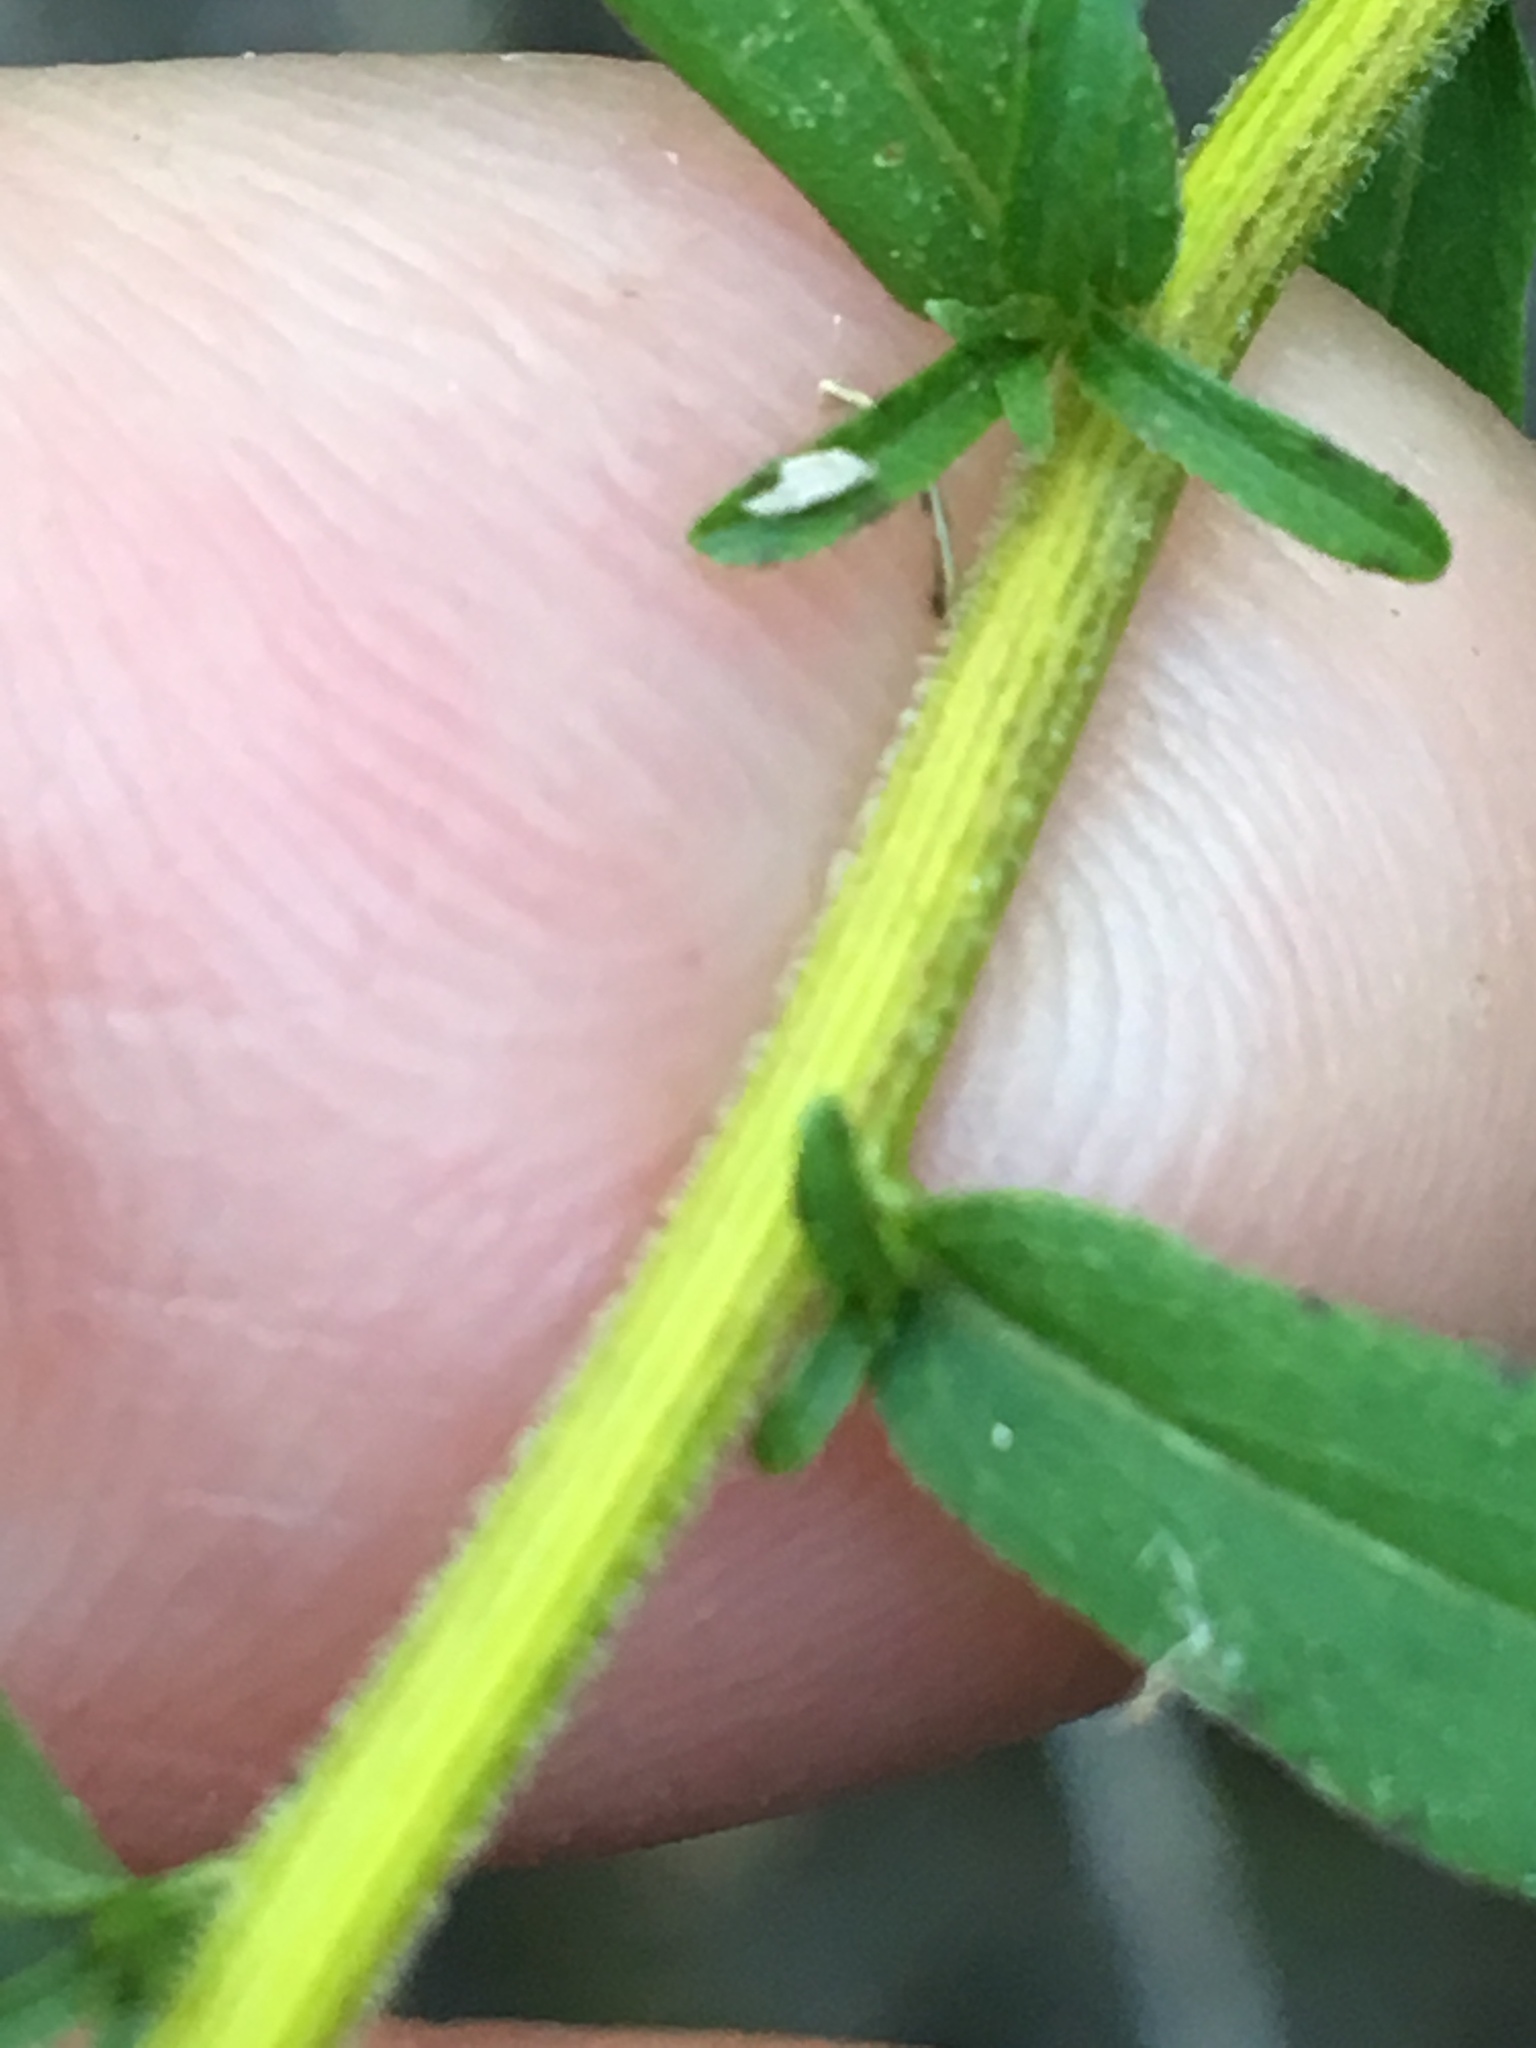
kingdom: Plantae
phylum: Tracheophyta
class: Magnoliopsida
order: Asterales
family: Asteraceae
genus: Solidago
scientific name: Solidago odora
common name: Anise-scented goldenrod
